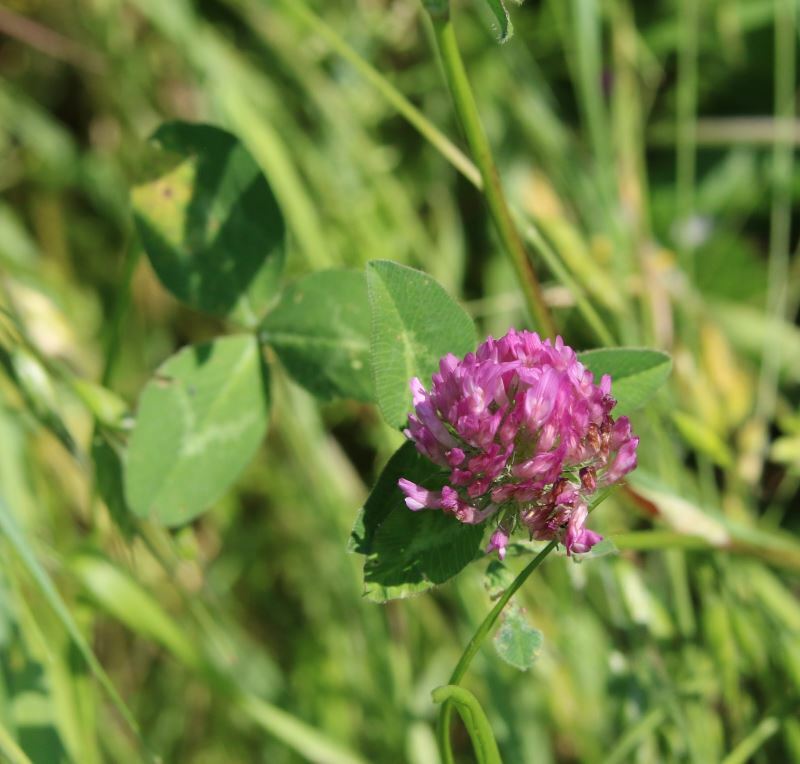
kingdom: Plantae
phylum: Tracheophyta
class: Magnoliopsida
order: Fabales
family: Fabaceae
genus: Trifolium
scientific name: Trifolium pratense
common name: Red clover
